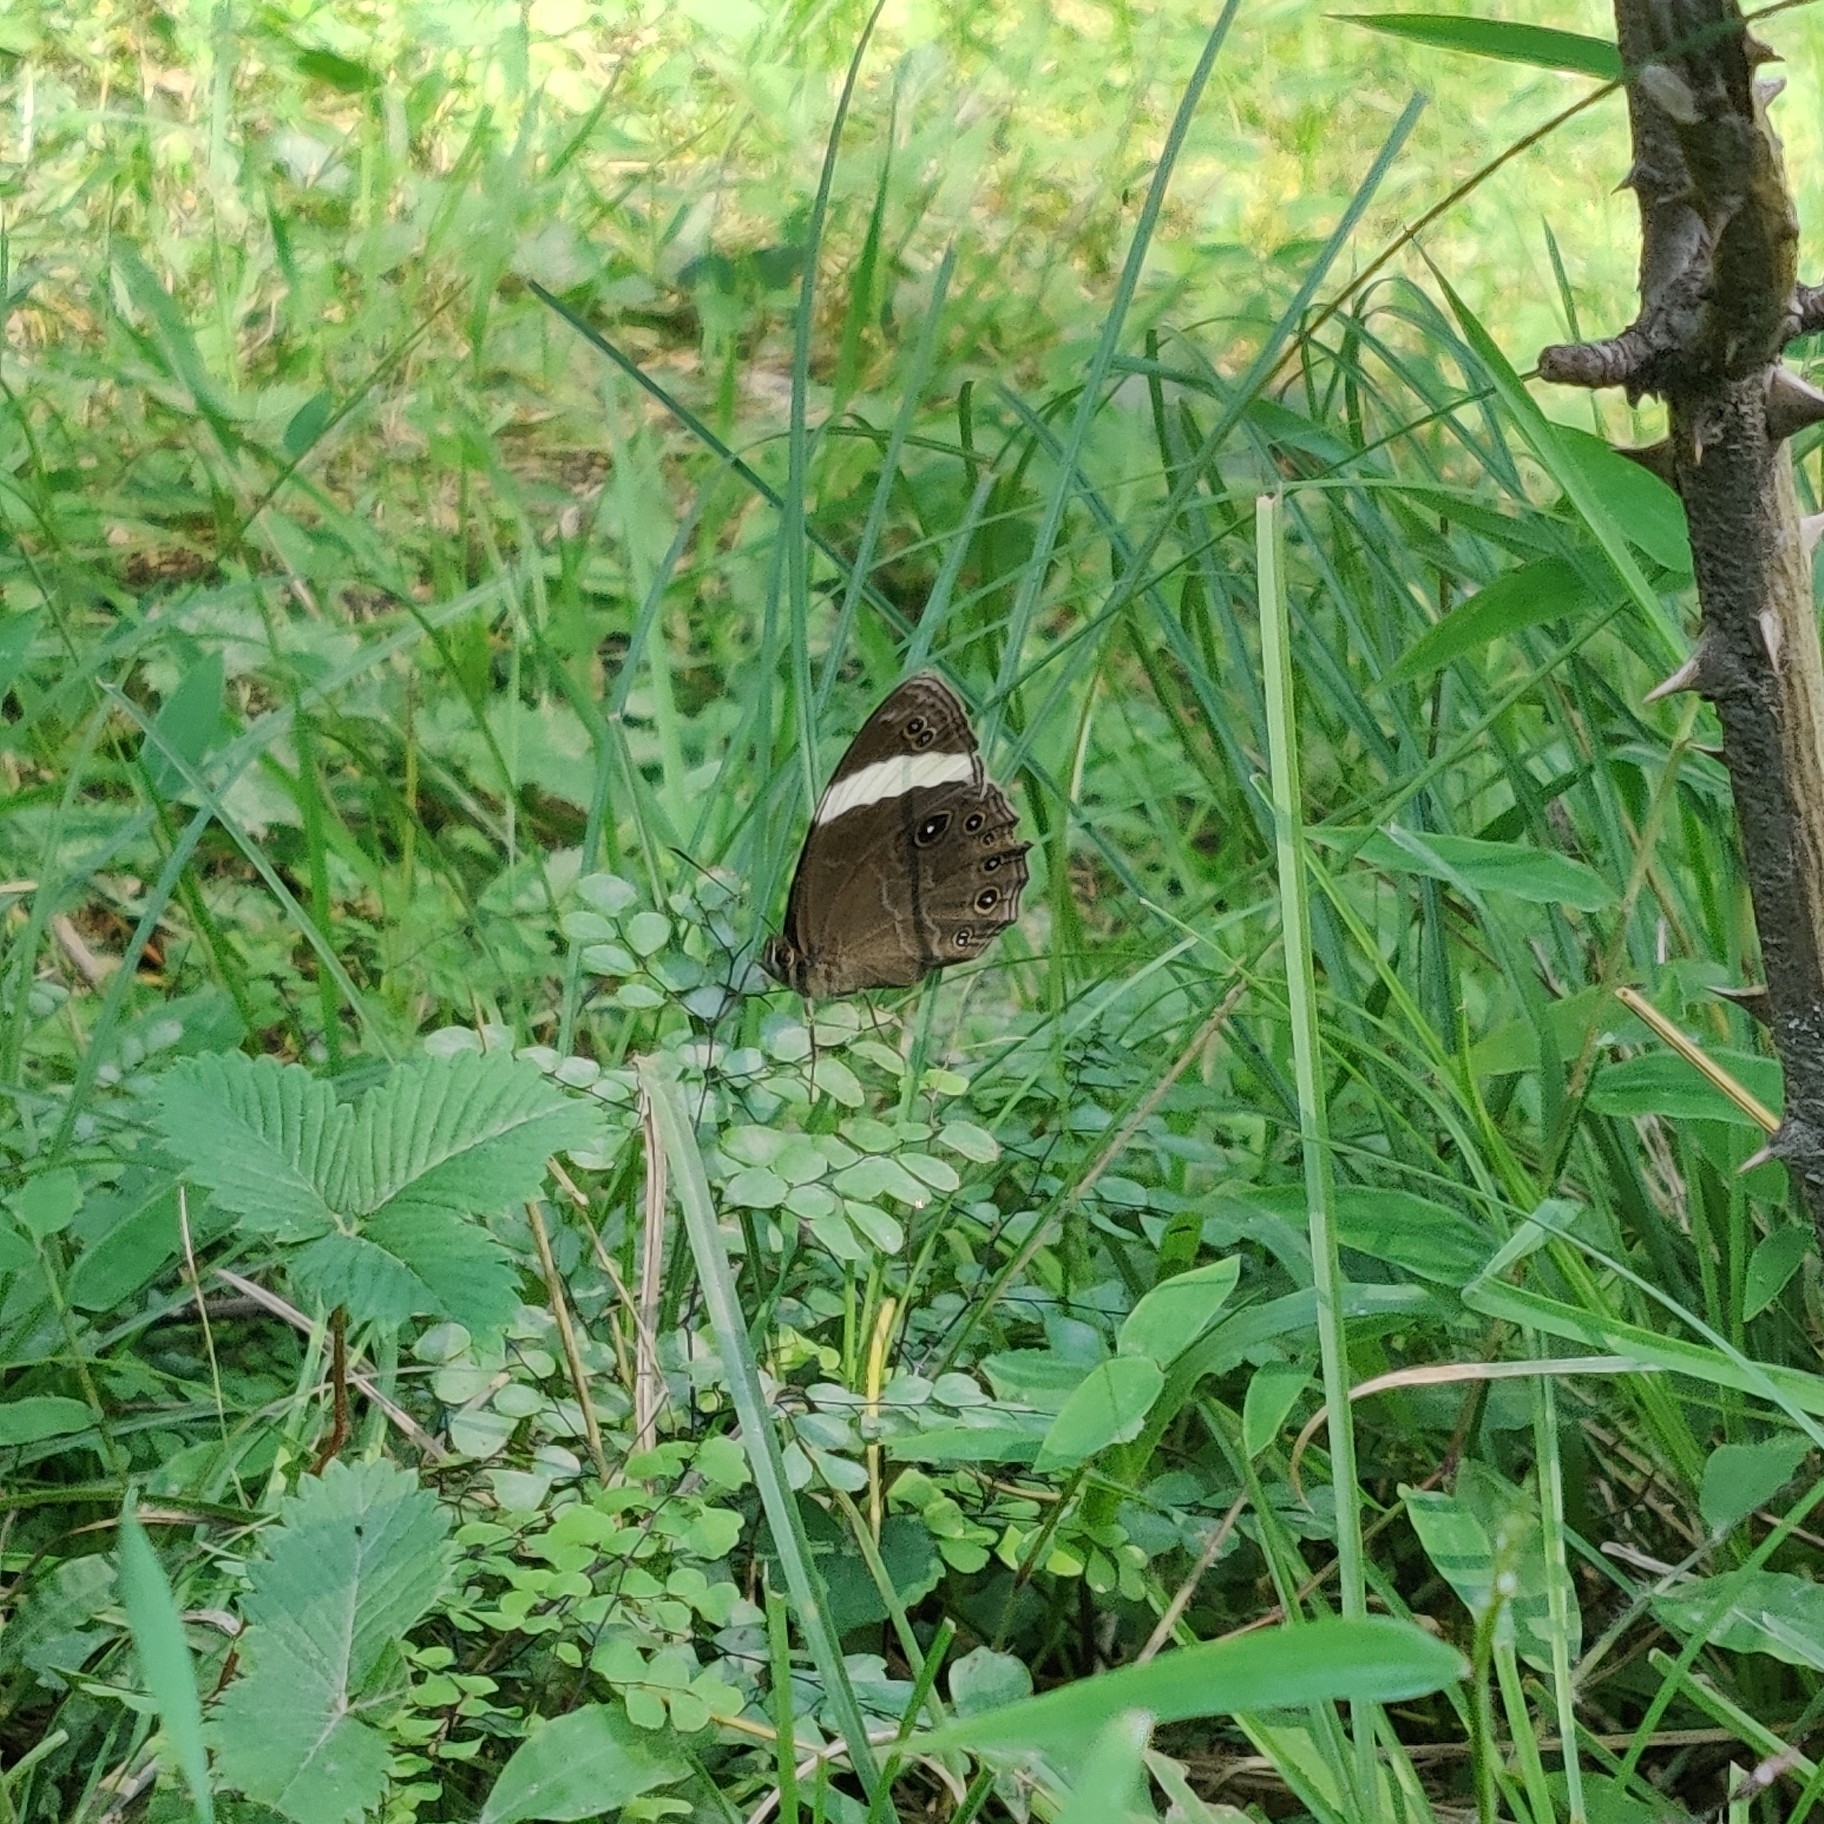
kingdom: Animalia
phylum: Arthropoda
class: Insecta
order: Lepidoptera
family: Nymphalidae
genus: Lethe
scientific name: Lethe verma
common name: Straight-banded treebrown
